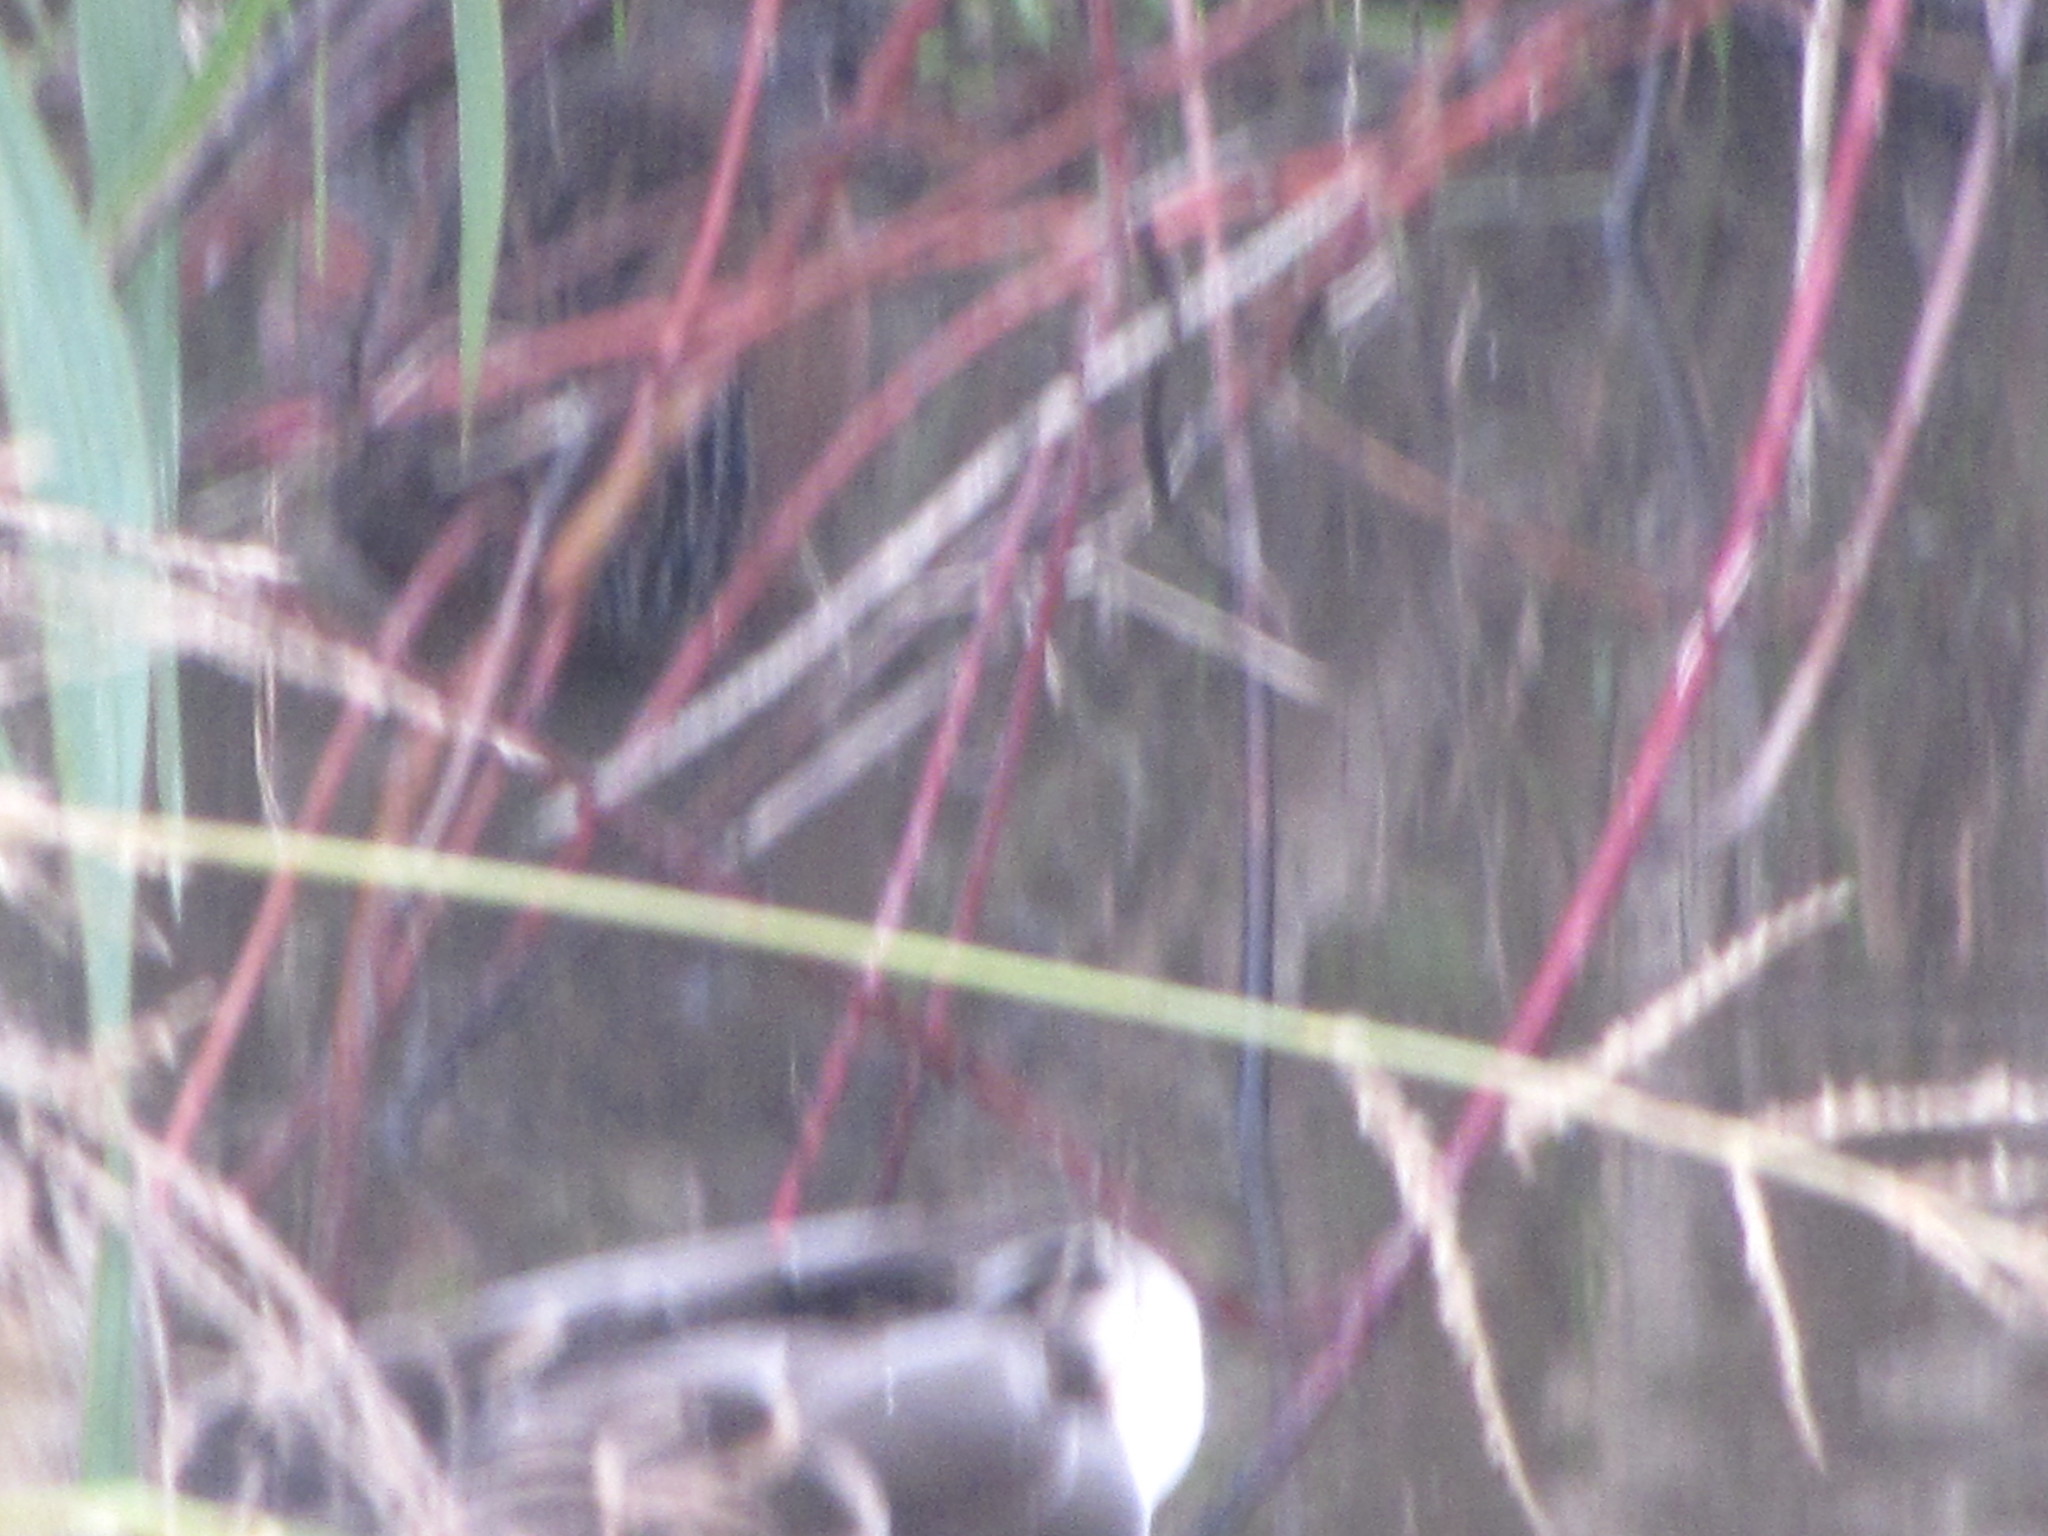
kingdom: Animalia
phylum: Chordata
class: Aves
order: Gruiformes
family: Rallidae
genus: Rallus
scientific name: Rallus limicola
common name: Virginia rail
